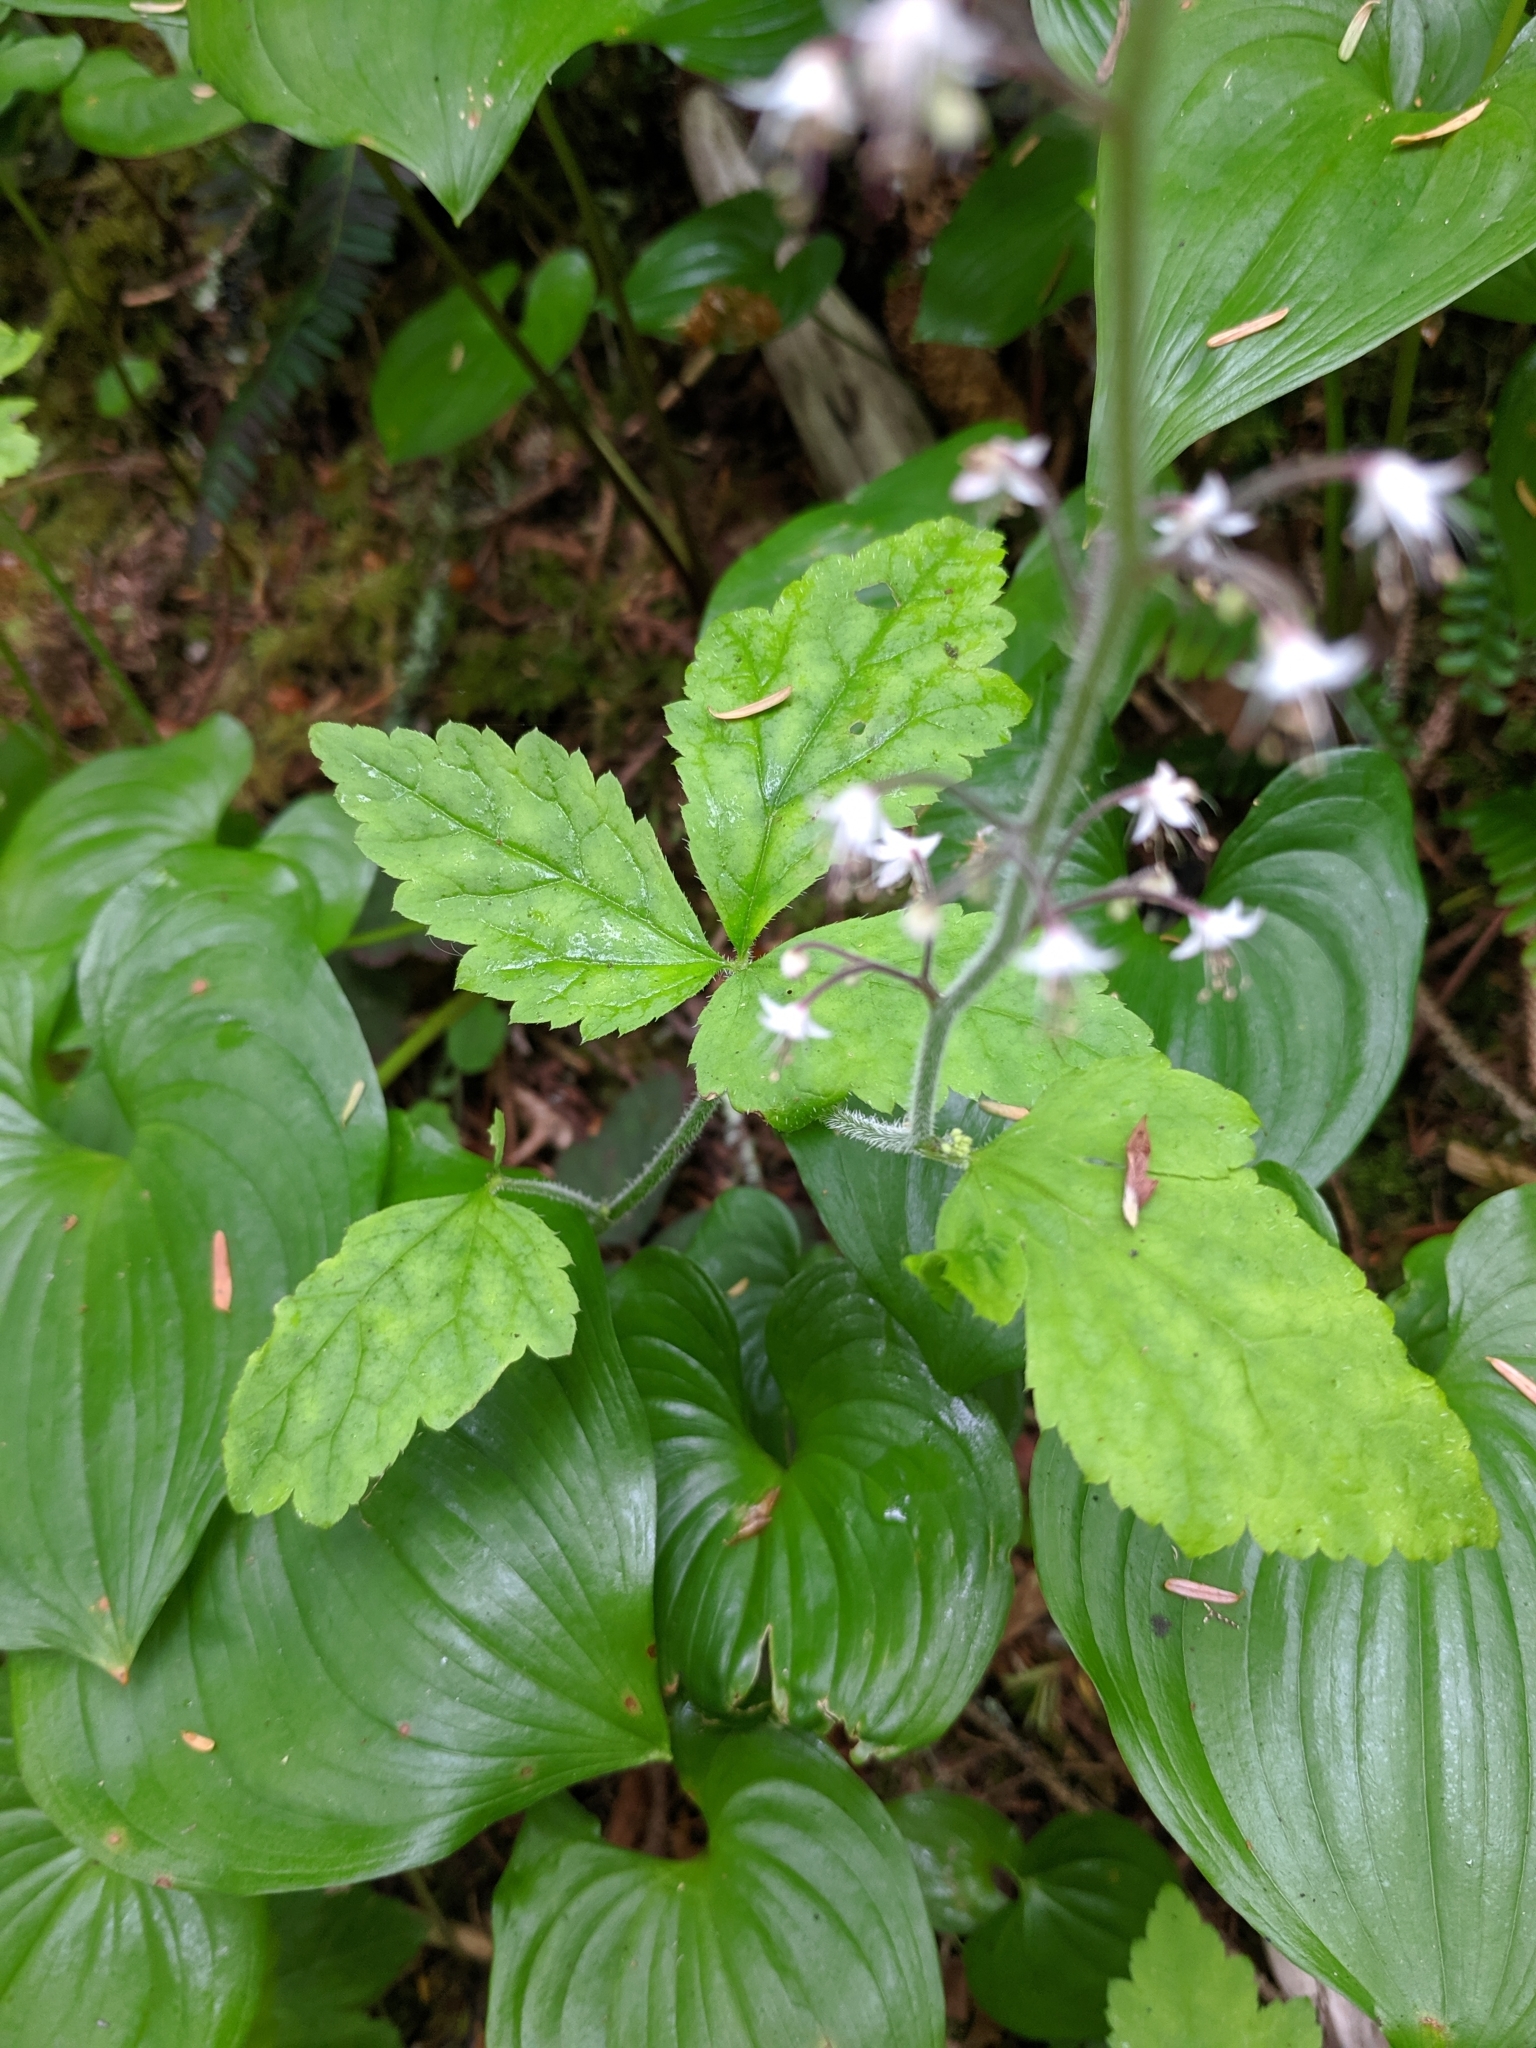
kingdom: Plantae
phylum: Tracheophyta
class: Magnoliopsida
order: Saxifragales
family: Saxifragaceae
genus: Tiarella
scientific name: Tiarella trifoliata
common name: Sugar-scoop
